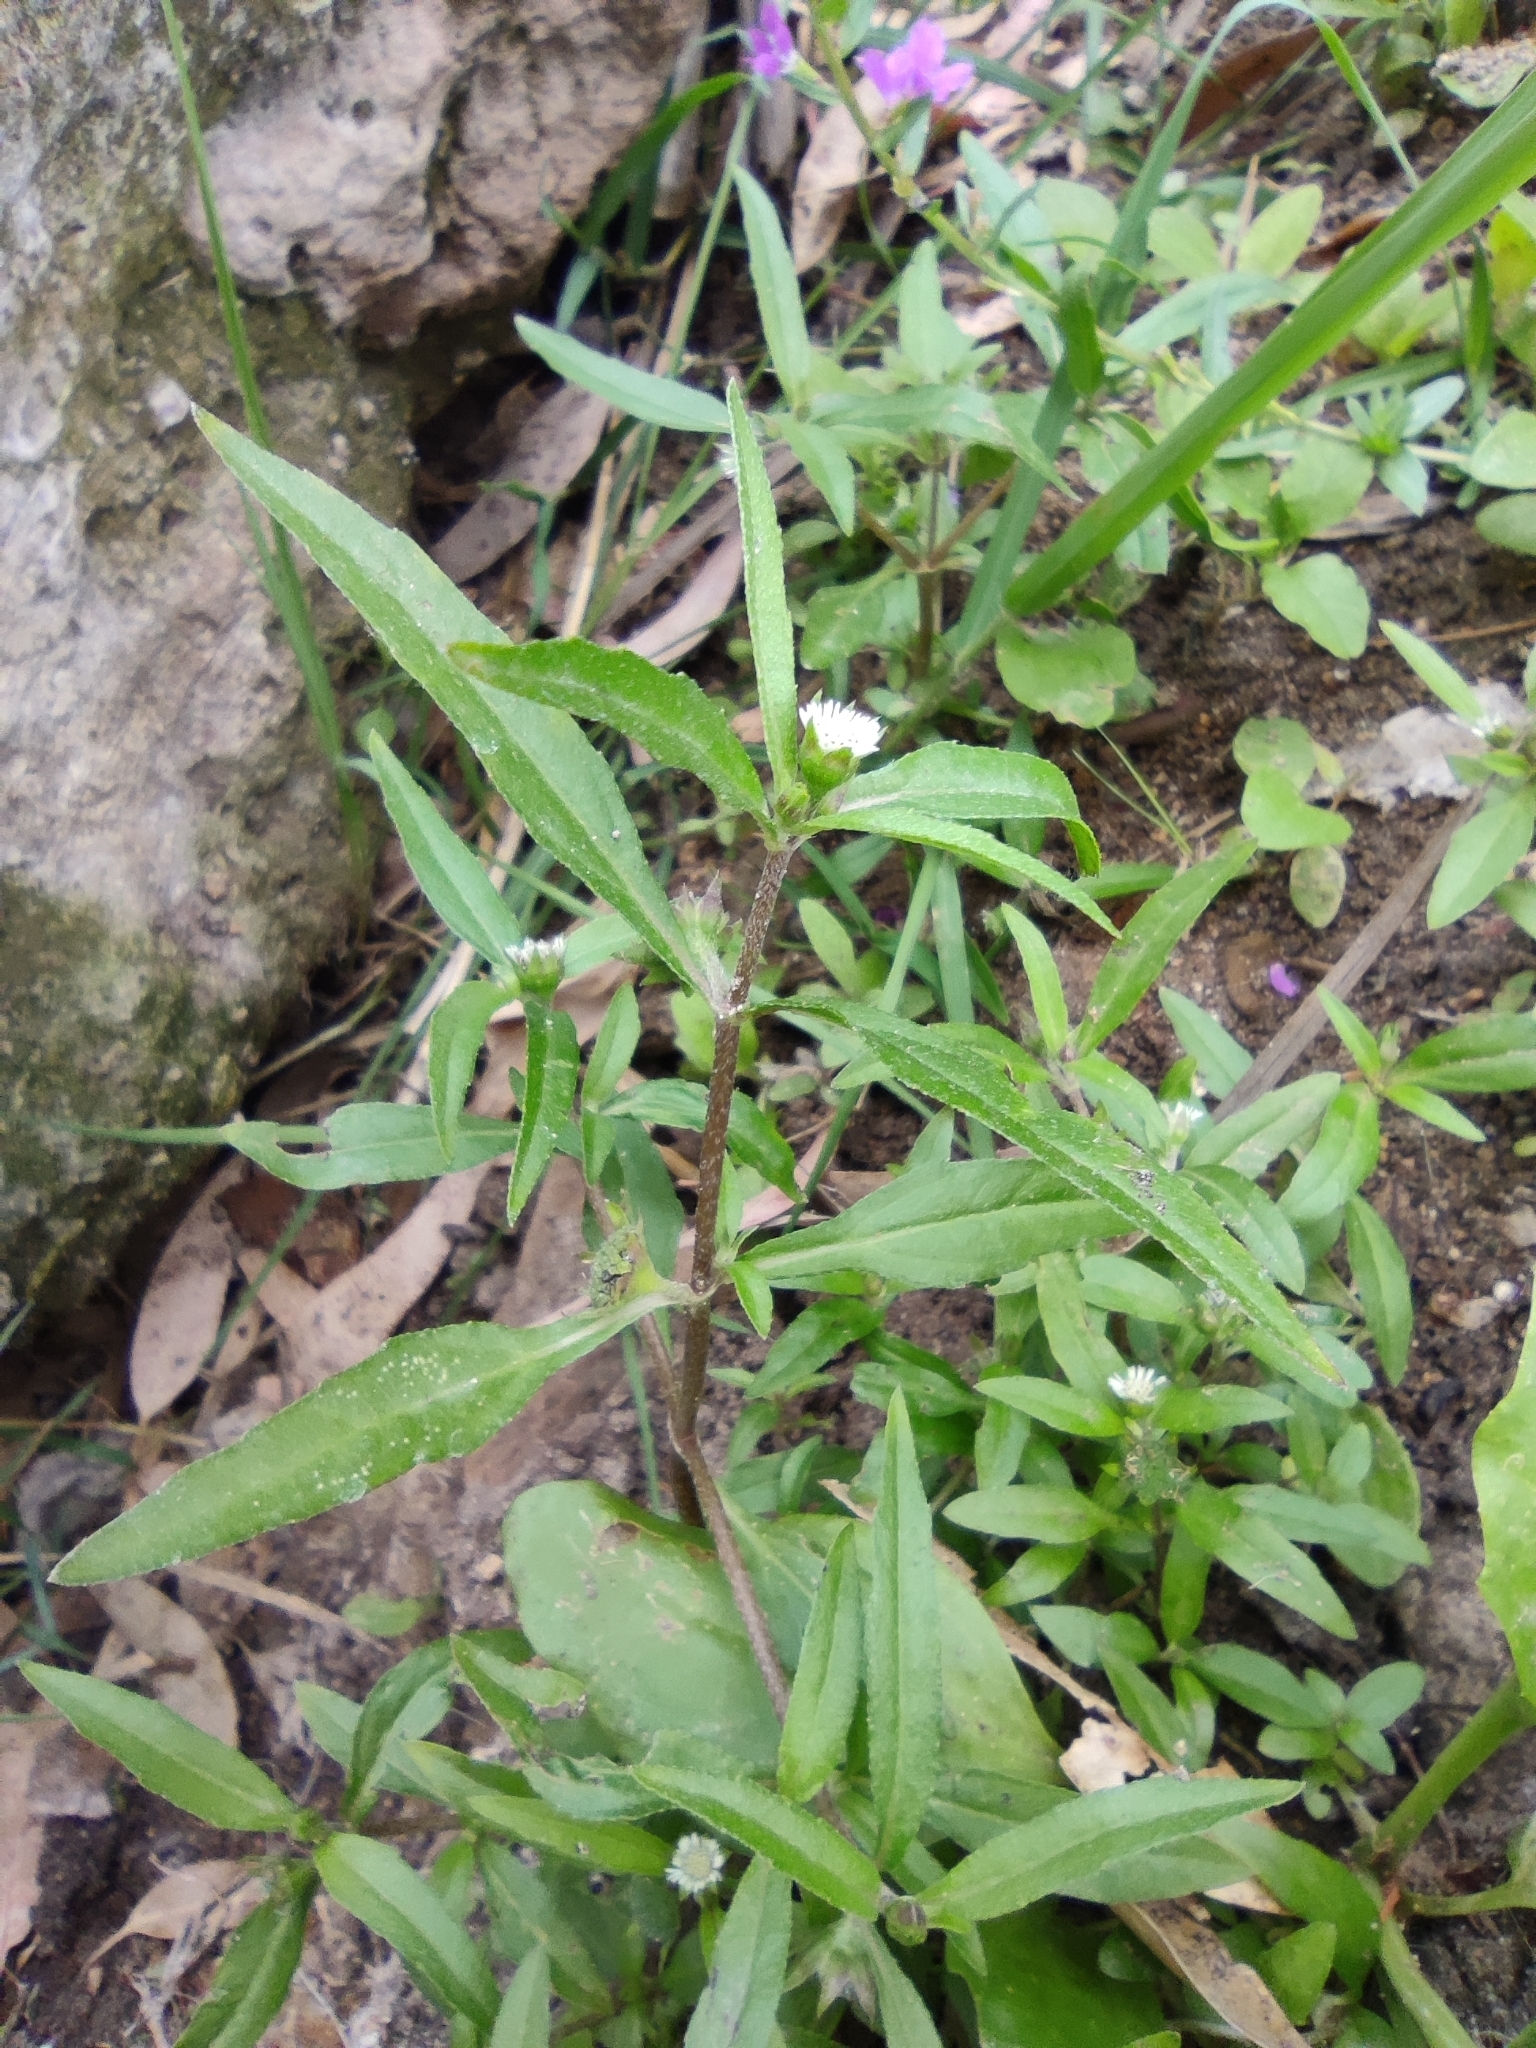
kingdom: Plantae
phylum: Tracheophyta
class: Magnoliopsida
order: Asterales
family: Asteraceae
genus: Eclipta
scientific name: Eclipta prostrata
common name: False daisy
